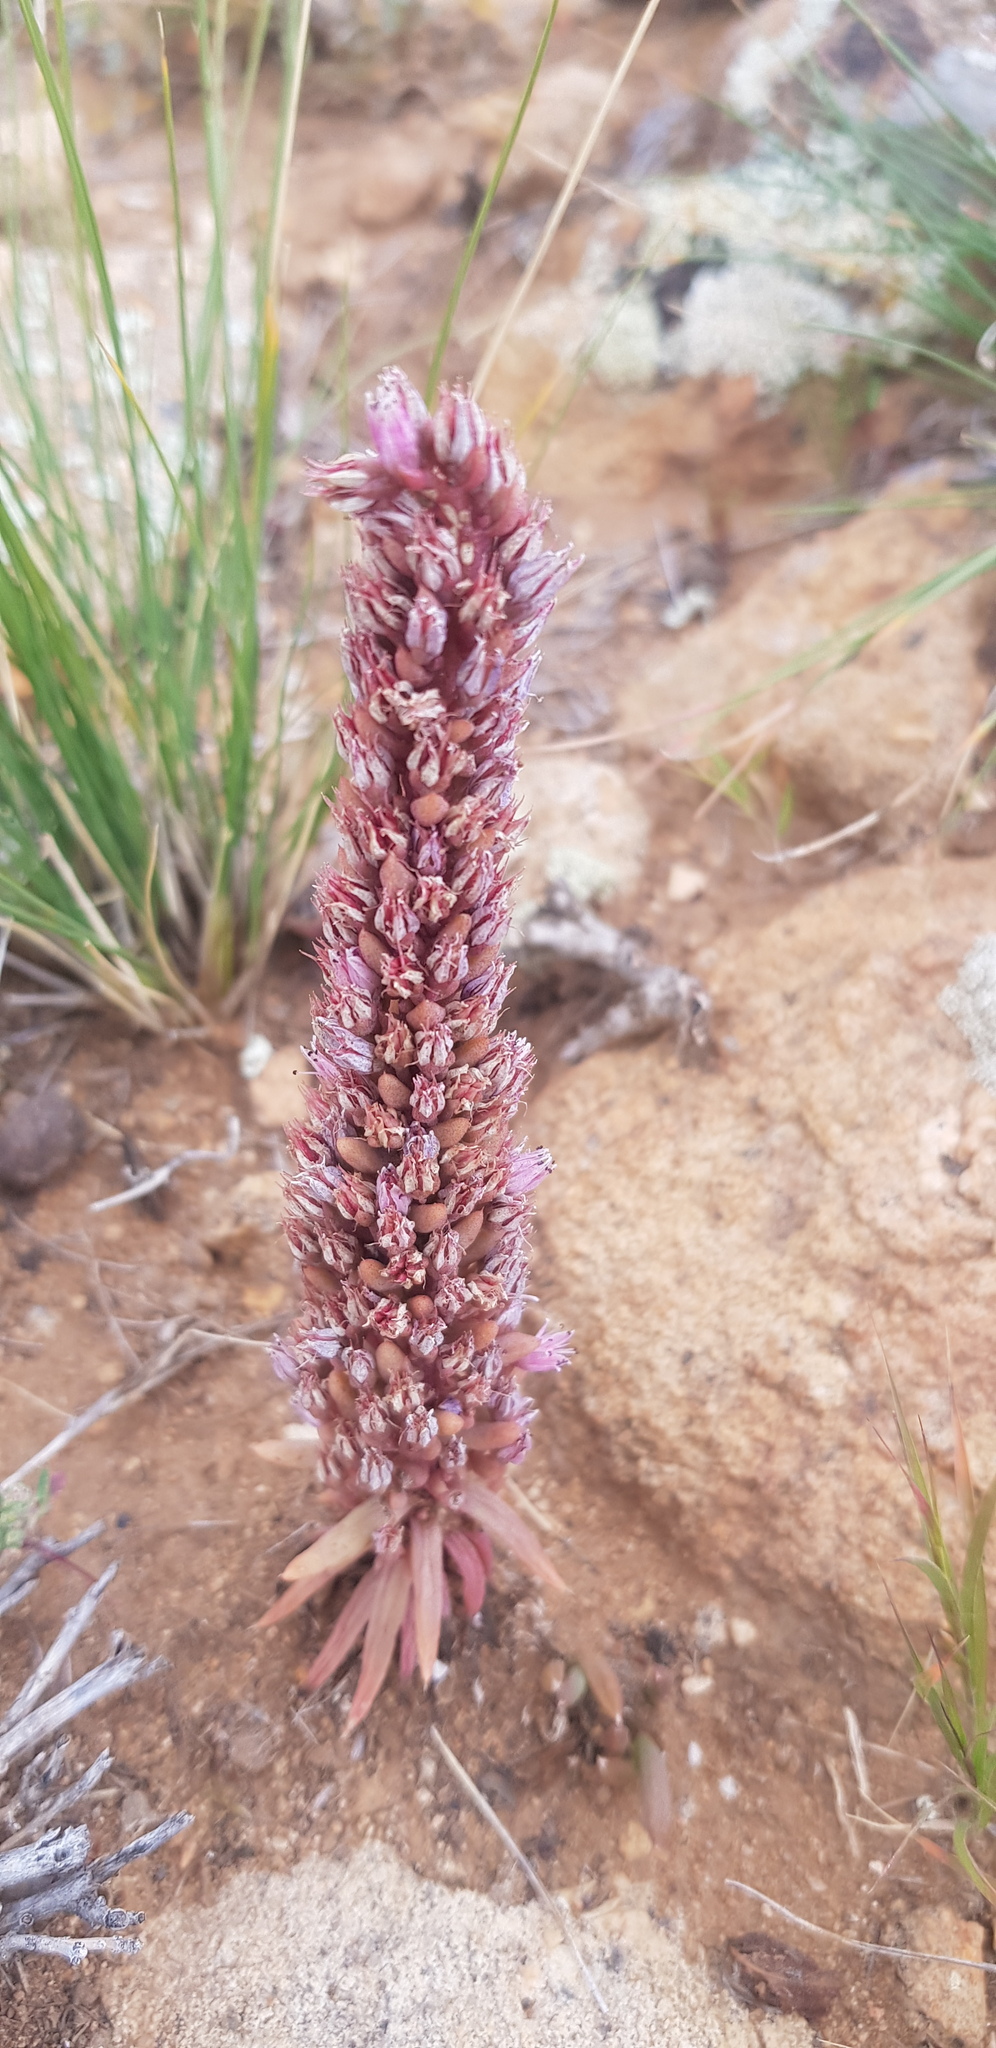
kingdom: Plantae
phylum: Tracheophyta
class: Magnoliopsida
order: Saxifragales
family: Crassulaceae
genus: Orostachys
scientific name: Orostachys fimbriata
